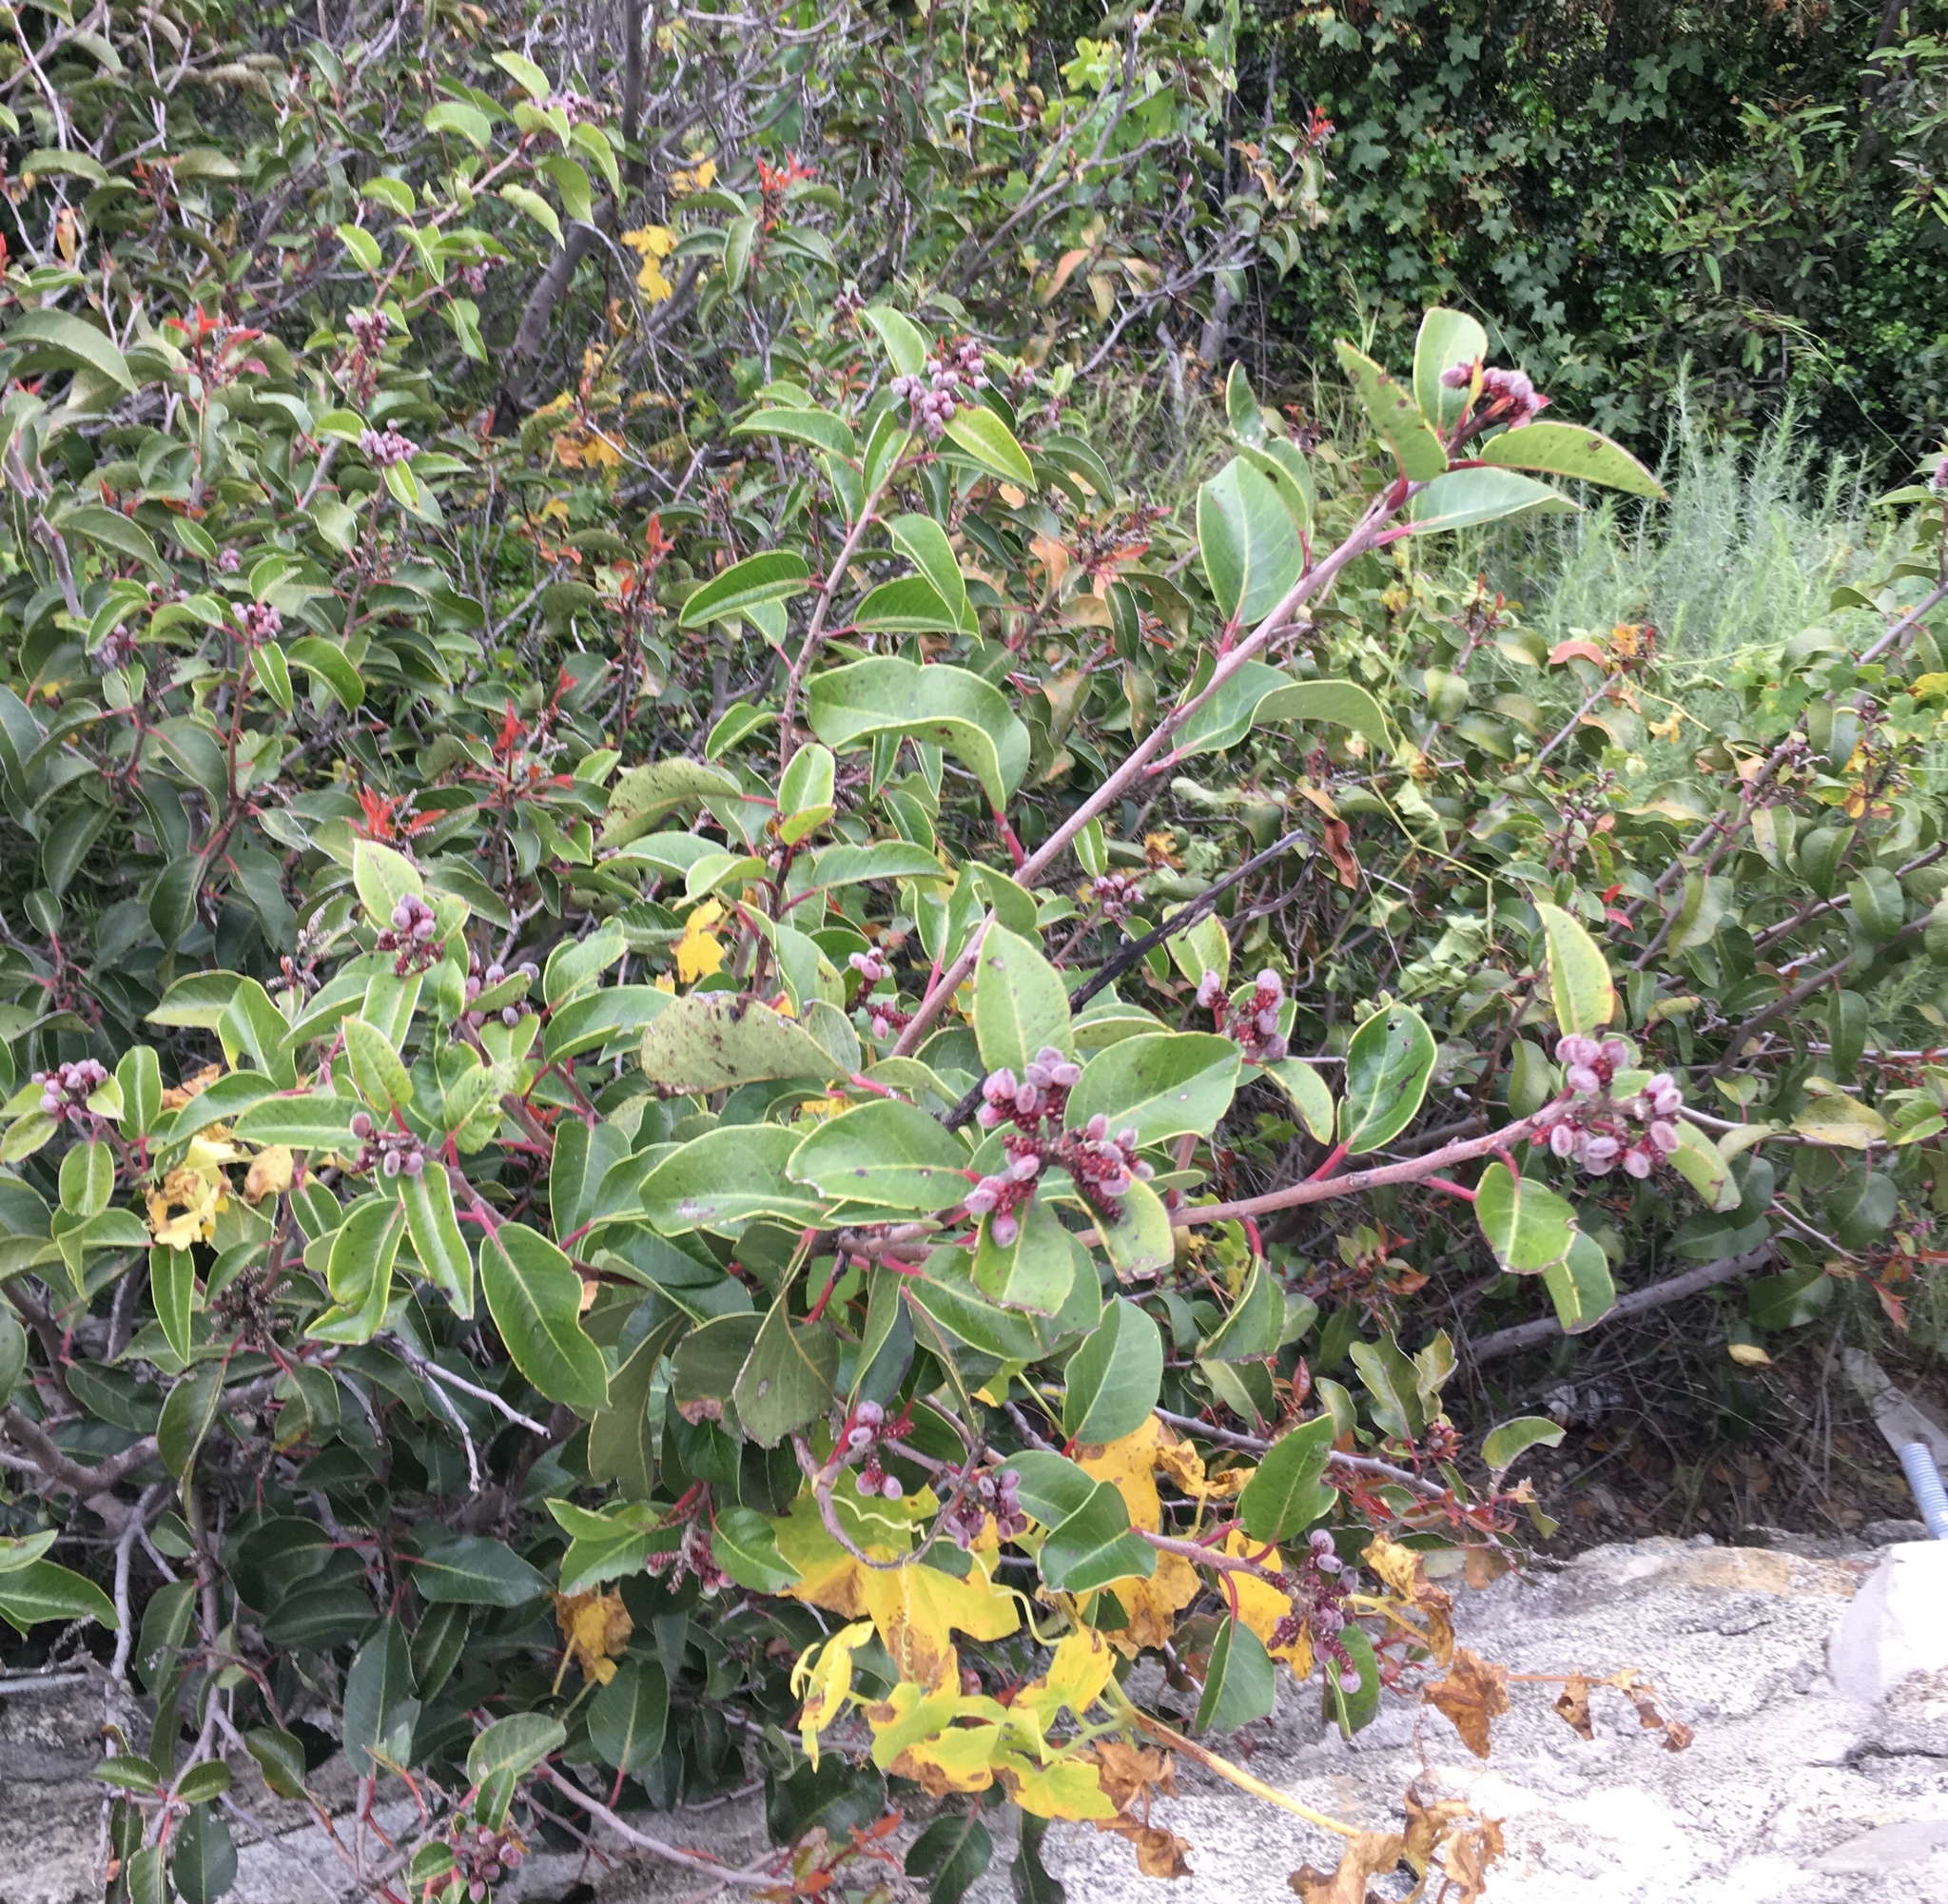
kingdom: Plantae
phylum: Tracheophyta
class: Magnoliopsida
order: Sapindales
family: Anacardiaceae
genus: Rhus
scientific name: Rhus ovata
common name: Sugar sumac
